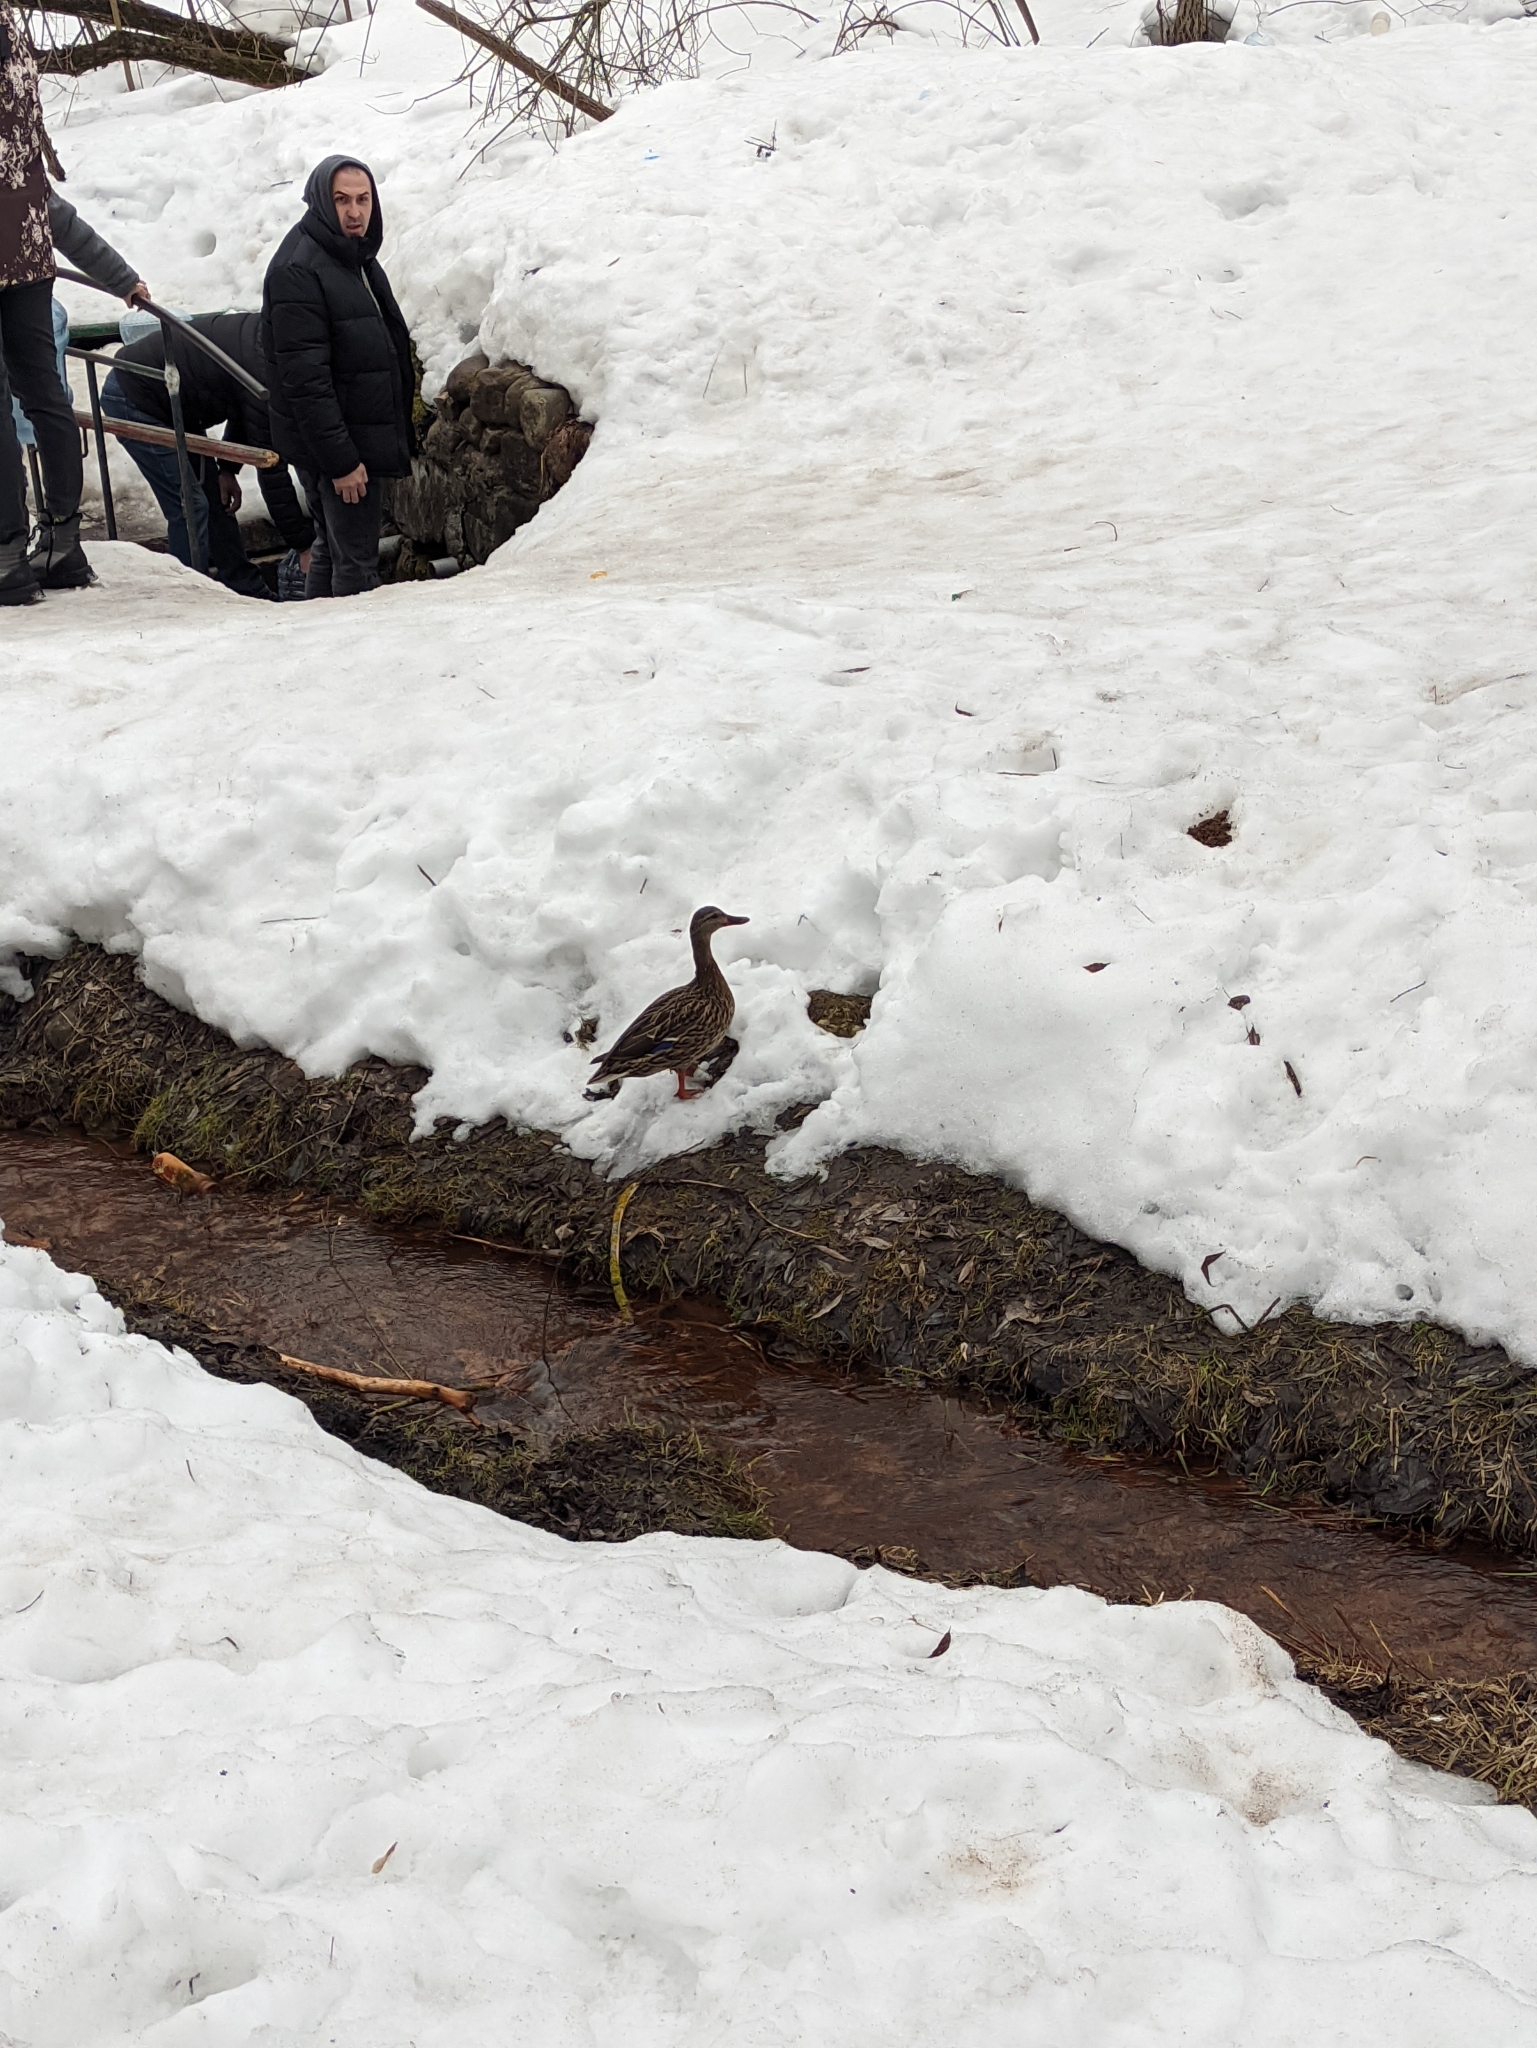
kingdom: Animalia
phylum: Chordata
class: Aves
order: Anseriformes
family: Anatidae
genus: Anas
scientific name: Anas platyrhynchos
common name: Mallard
